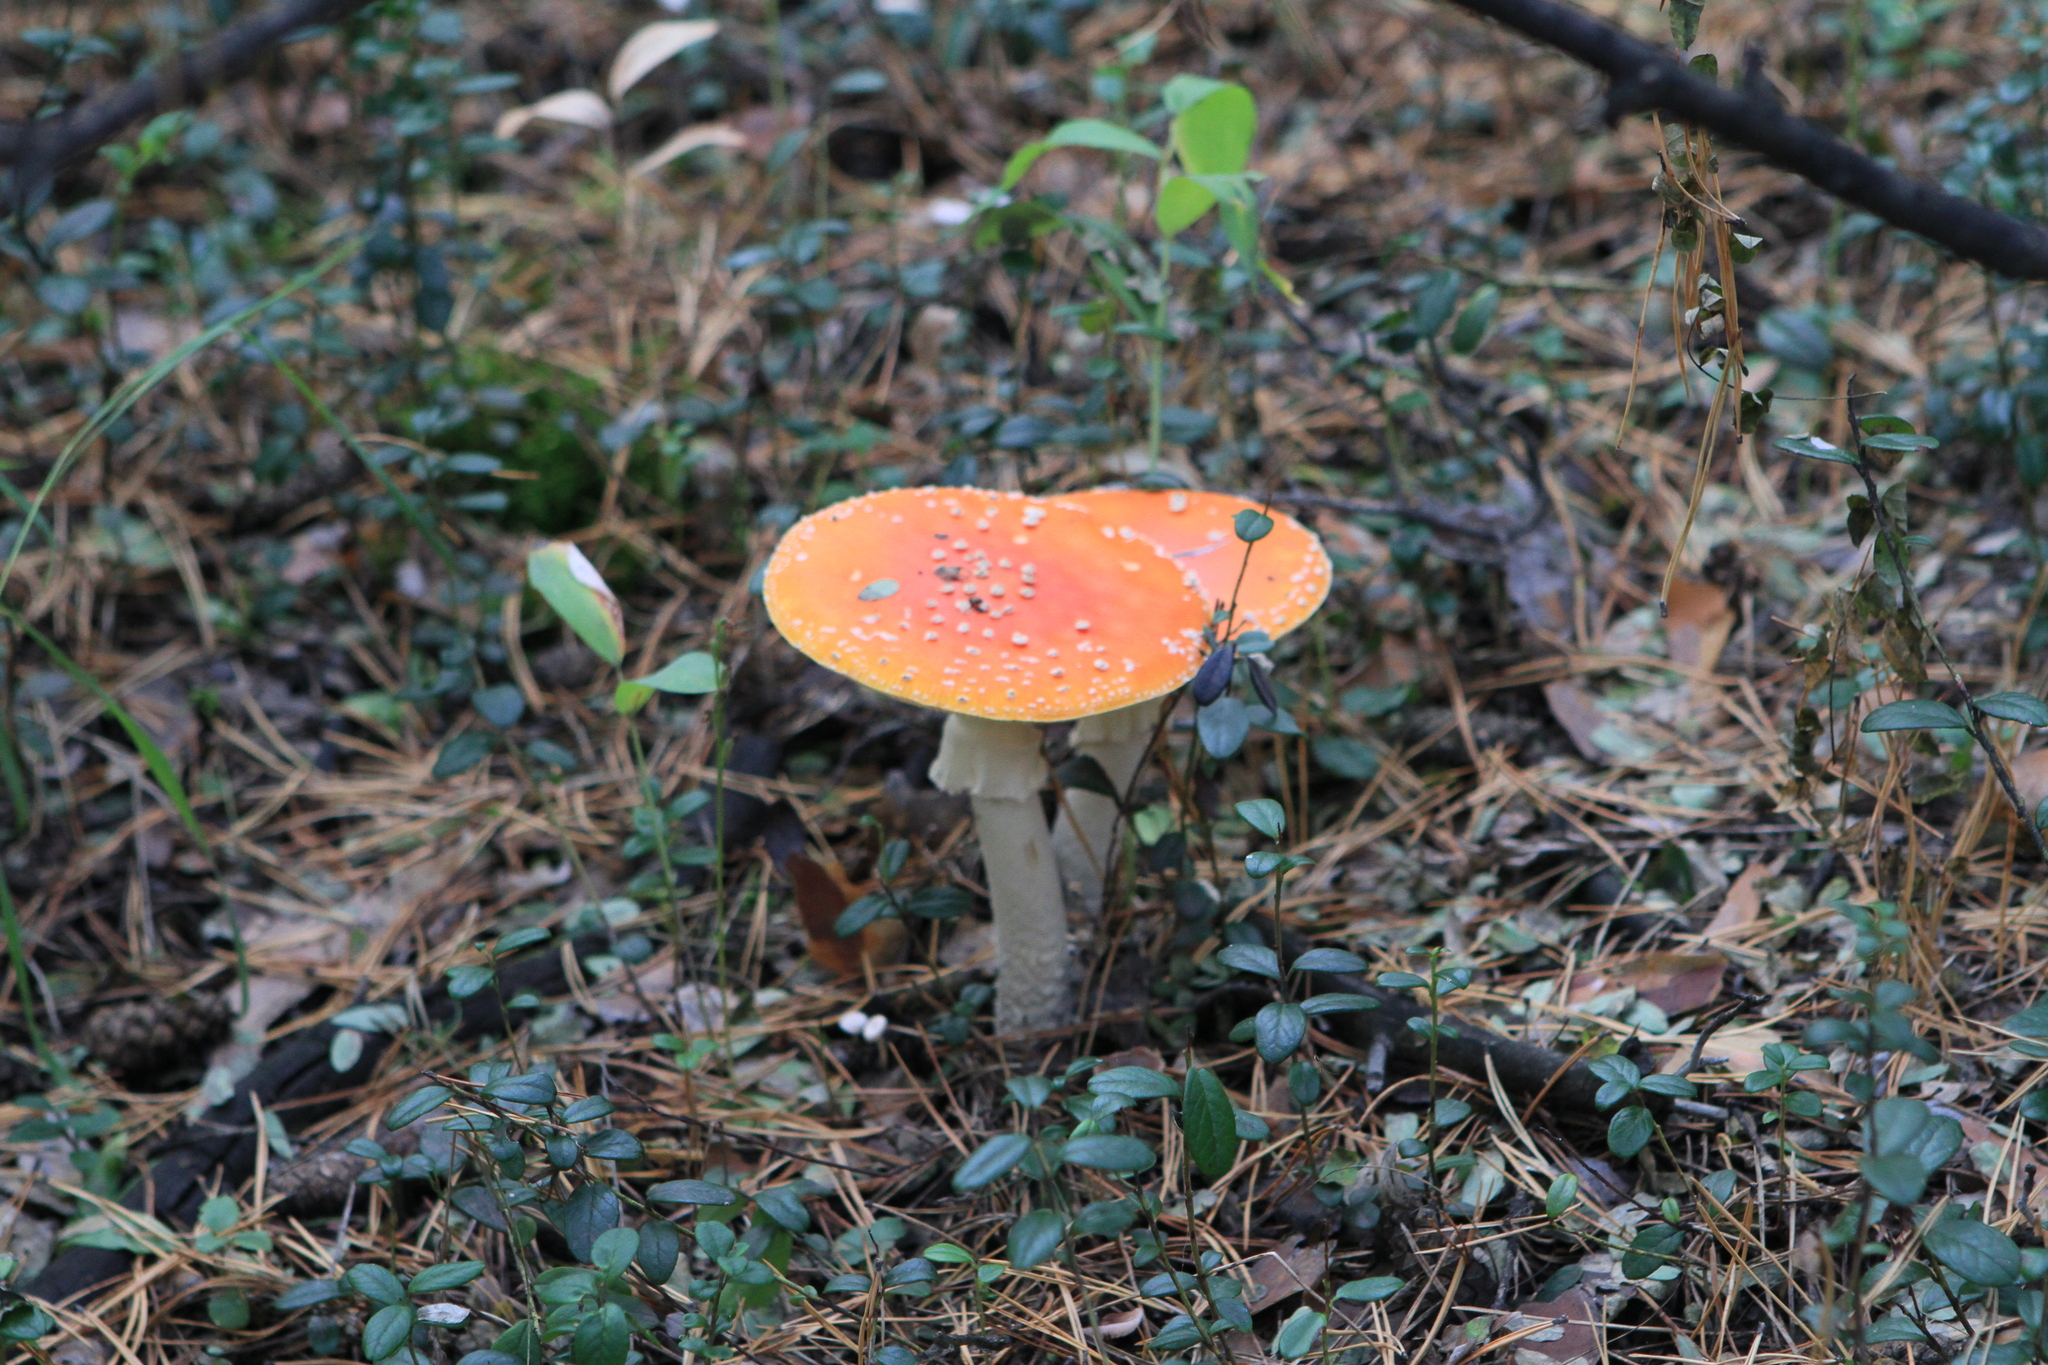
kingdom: Plantae
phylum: Tracheophyta
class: Magnoliopsida
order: Ericales
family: Ericaceae
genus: Vaccinium
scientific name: Vaccinium vitis-idaea
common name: Cowberry
